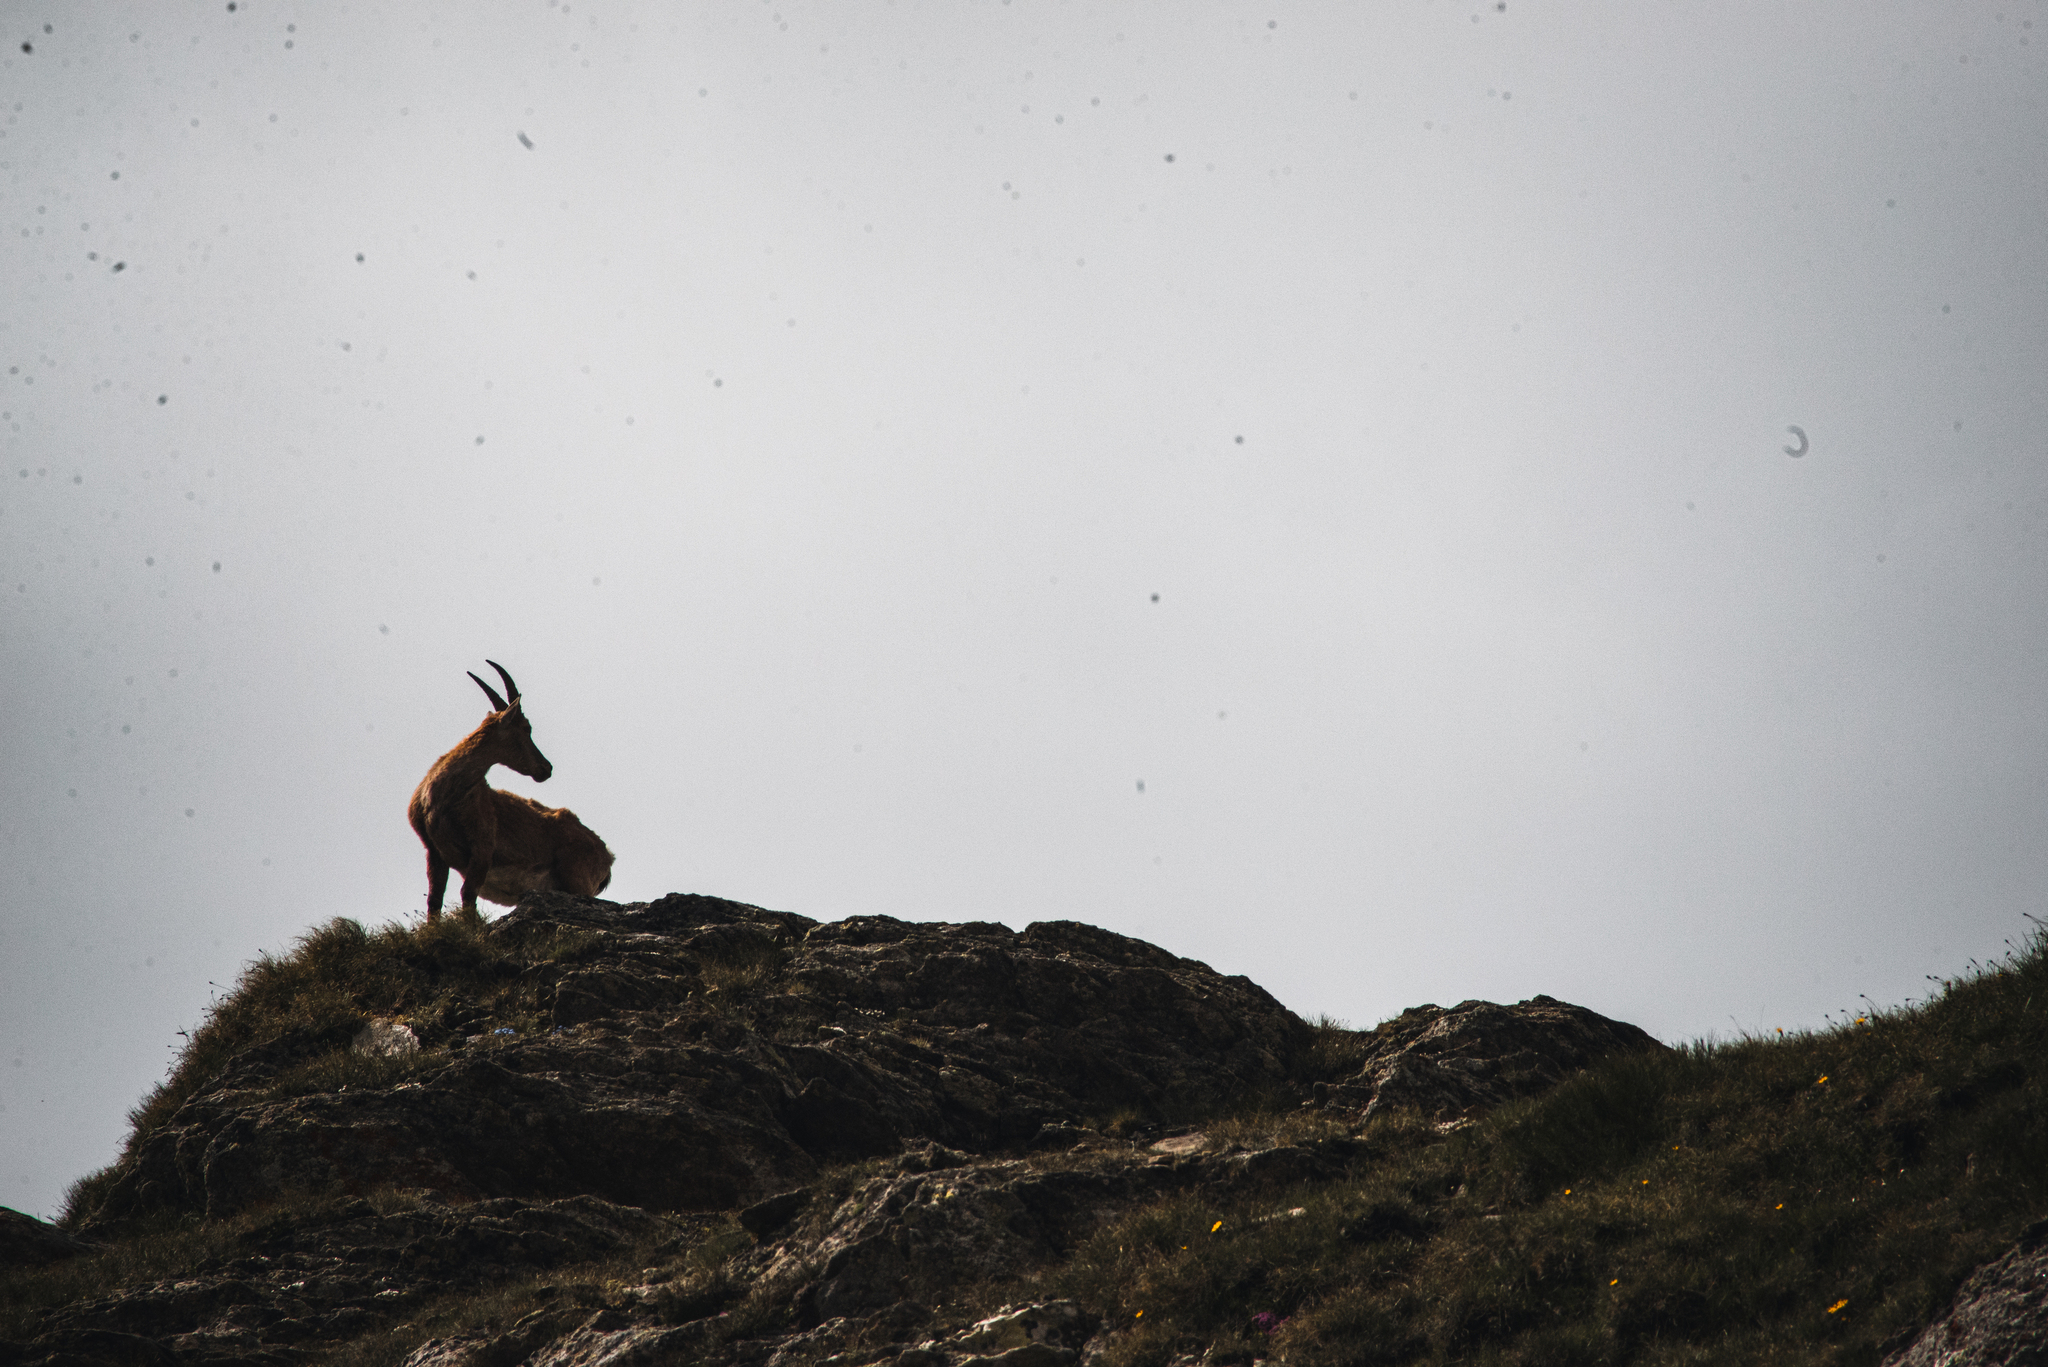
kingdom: Animalia
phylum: Chordata
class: Mammalia
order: Artiodactyla
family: Bovidae
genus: Capra
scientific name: Capra ibex
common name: Alpine ibex
